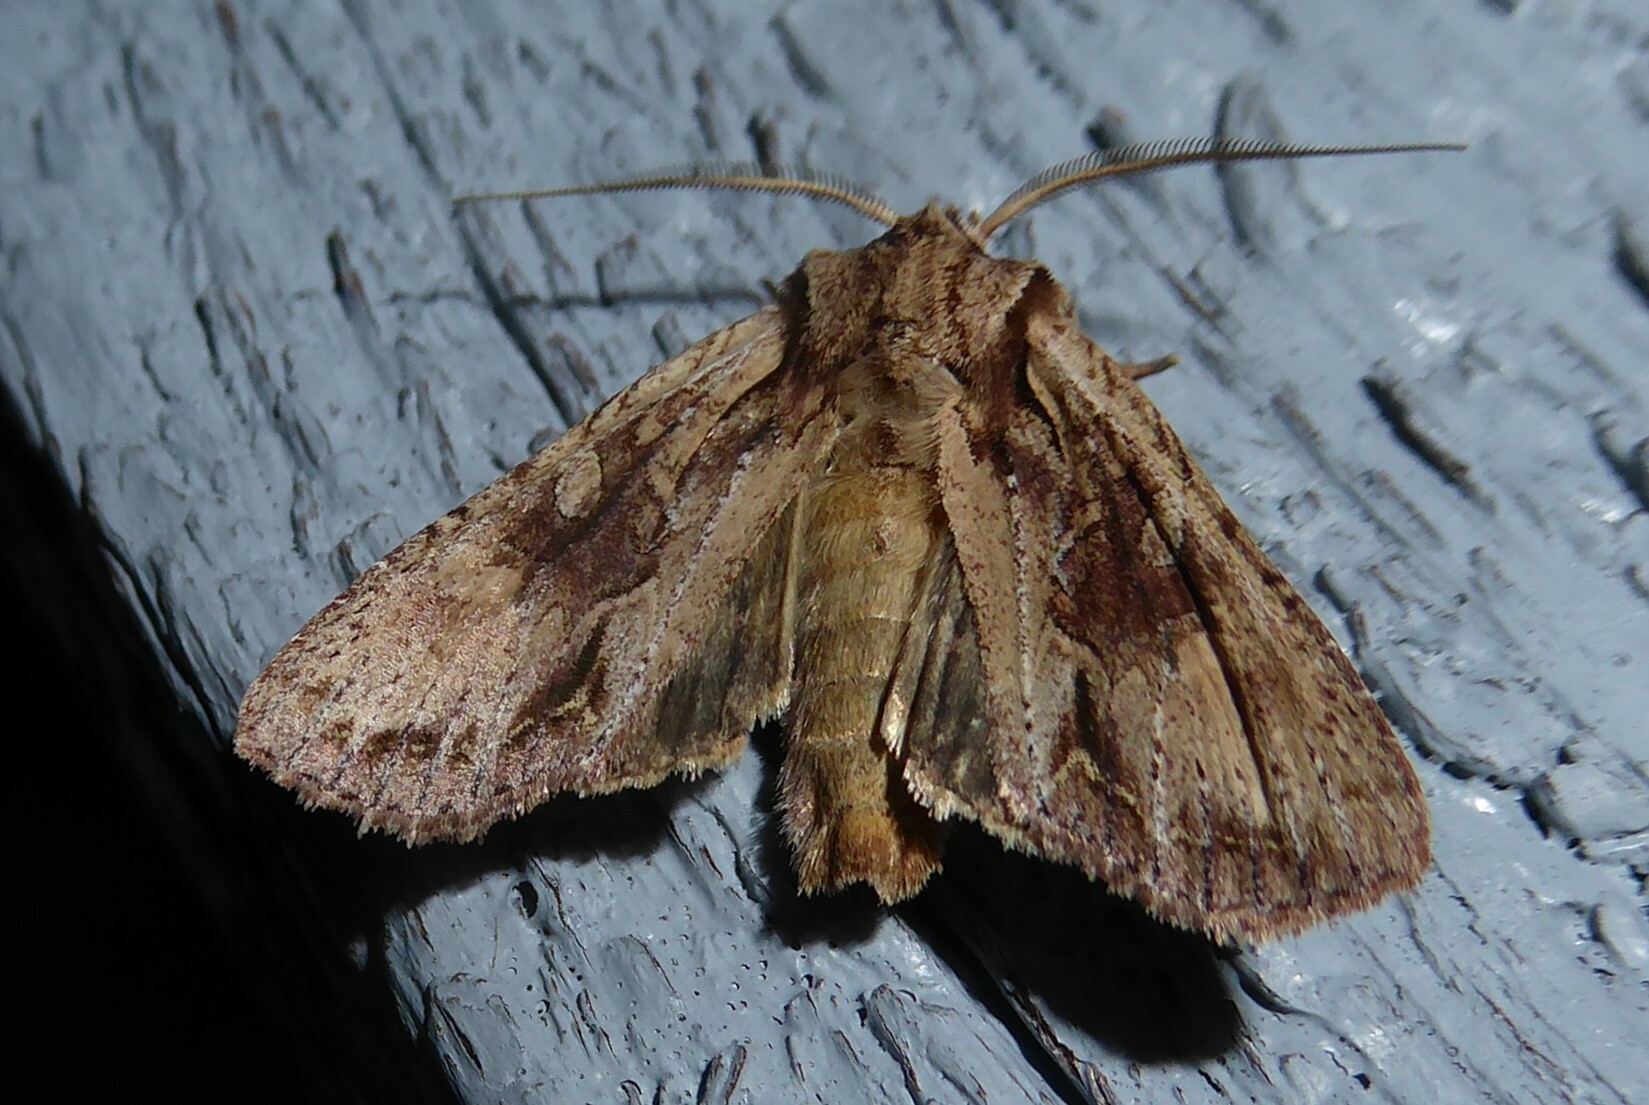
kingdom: Animalia
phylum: Arthropoda
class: Insecta
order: Lepidoptera
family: Noctuidae
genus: Ichneutica
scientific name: Ichneutica
